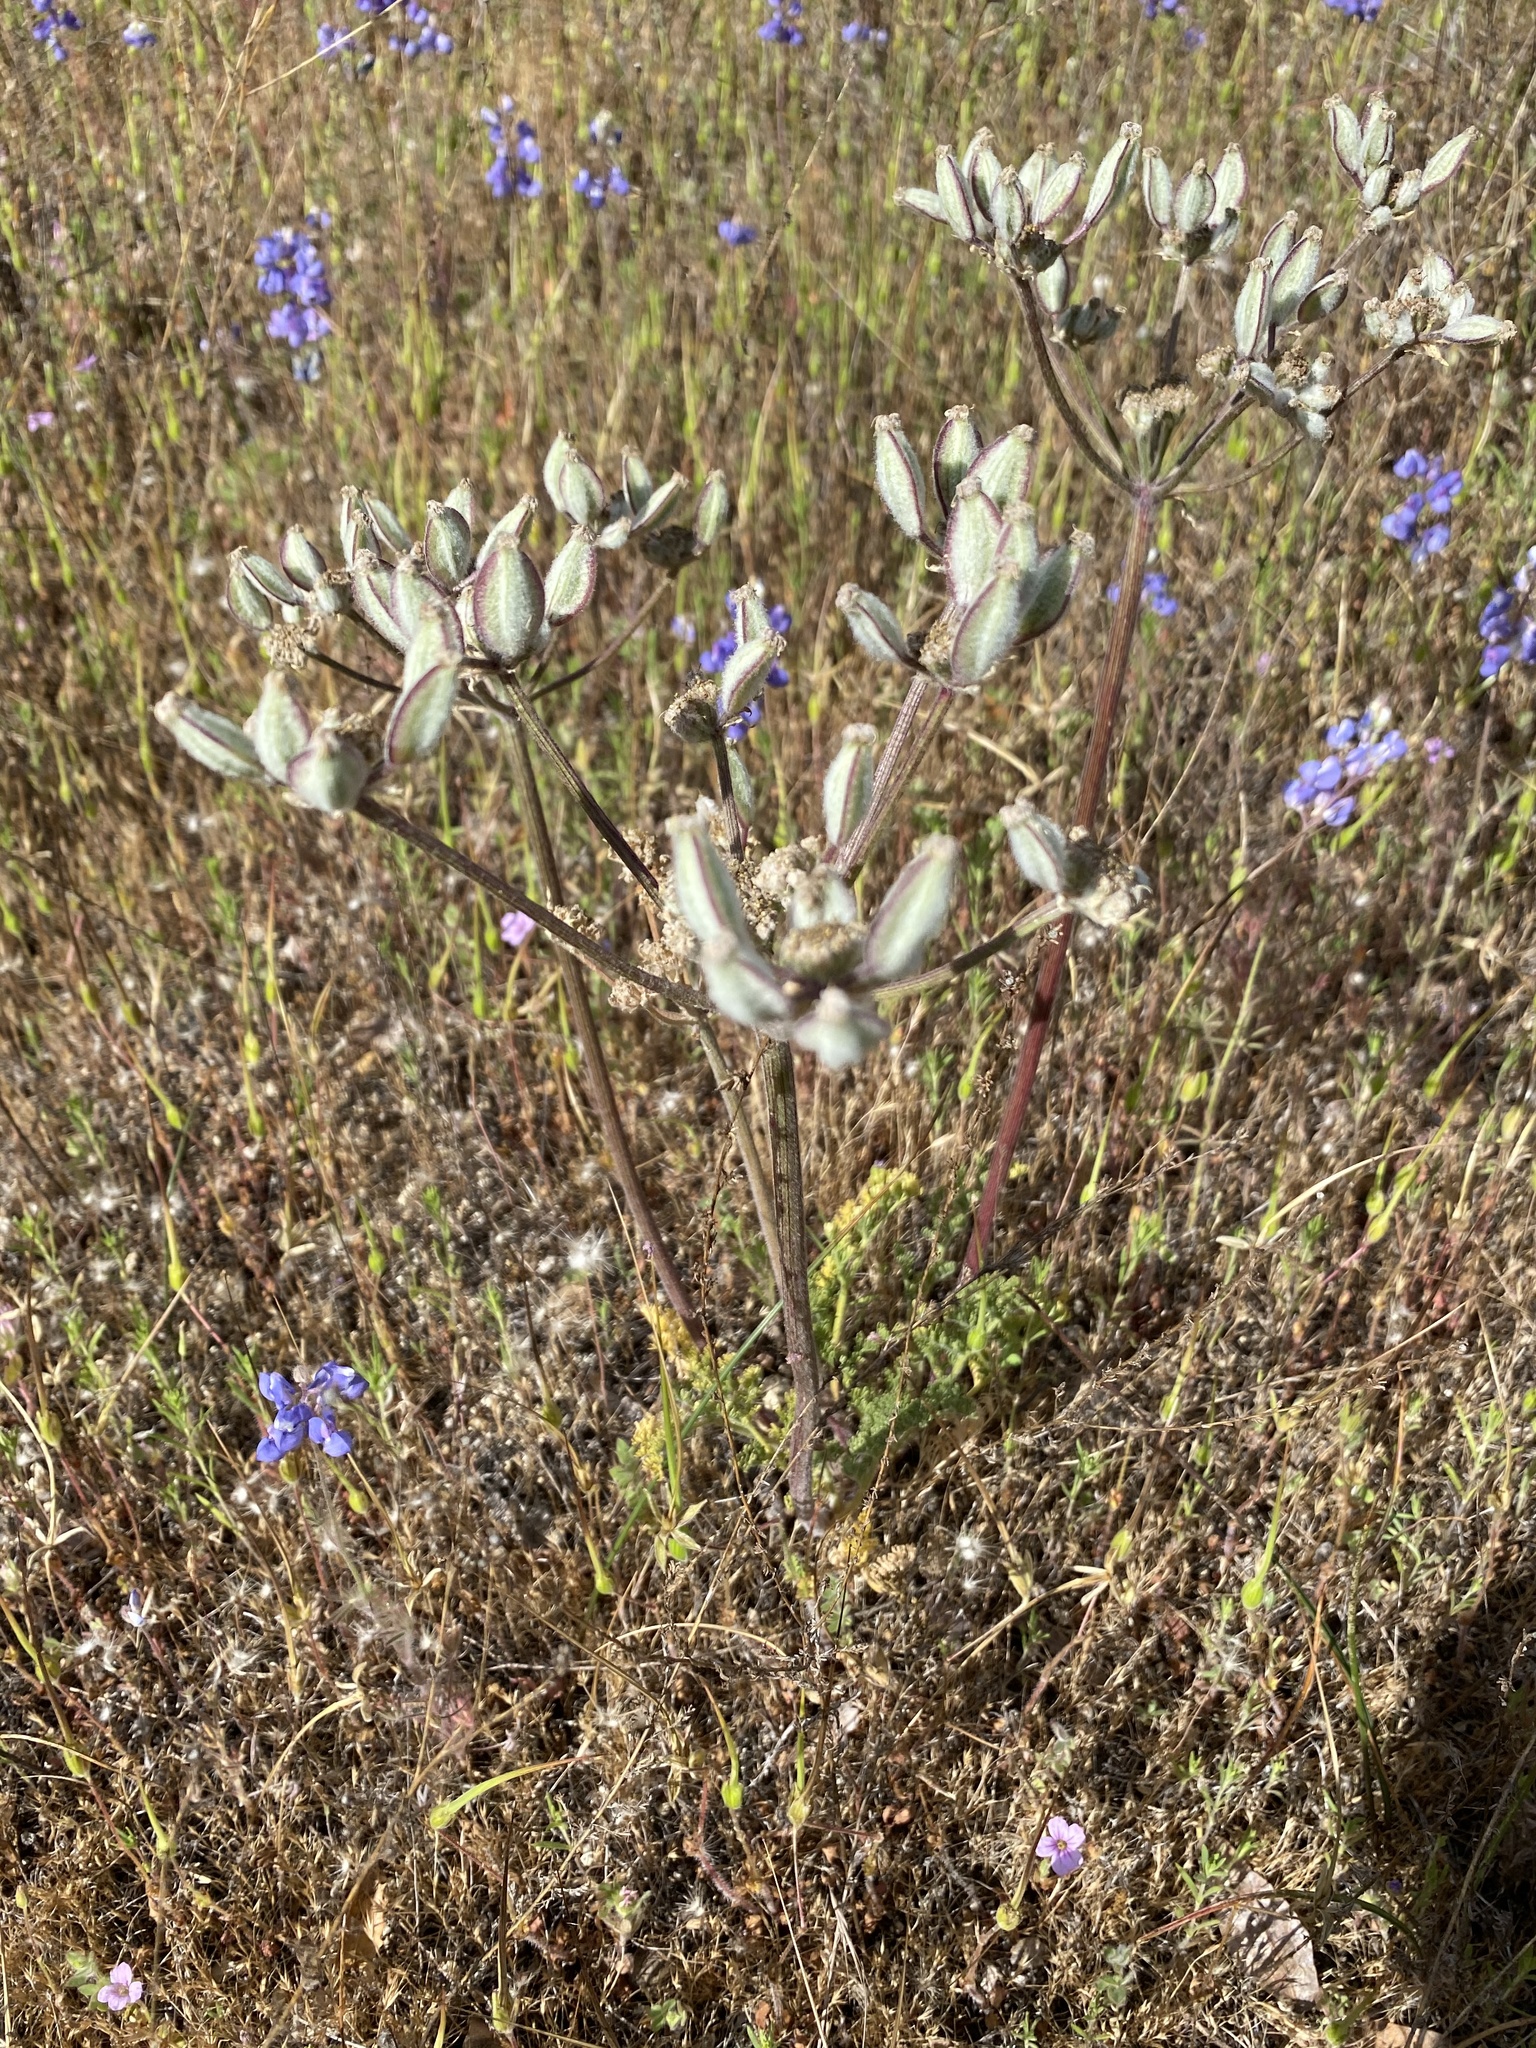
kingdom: Plantae
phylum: Tracheophyta
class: Magnoliopsida
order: Apiales
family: Apiaceae
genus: Lomatium
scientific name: Lomatium dasycarpum
